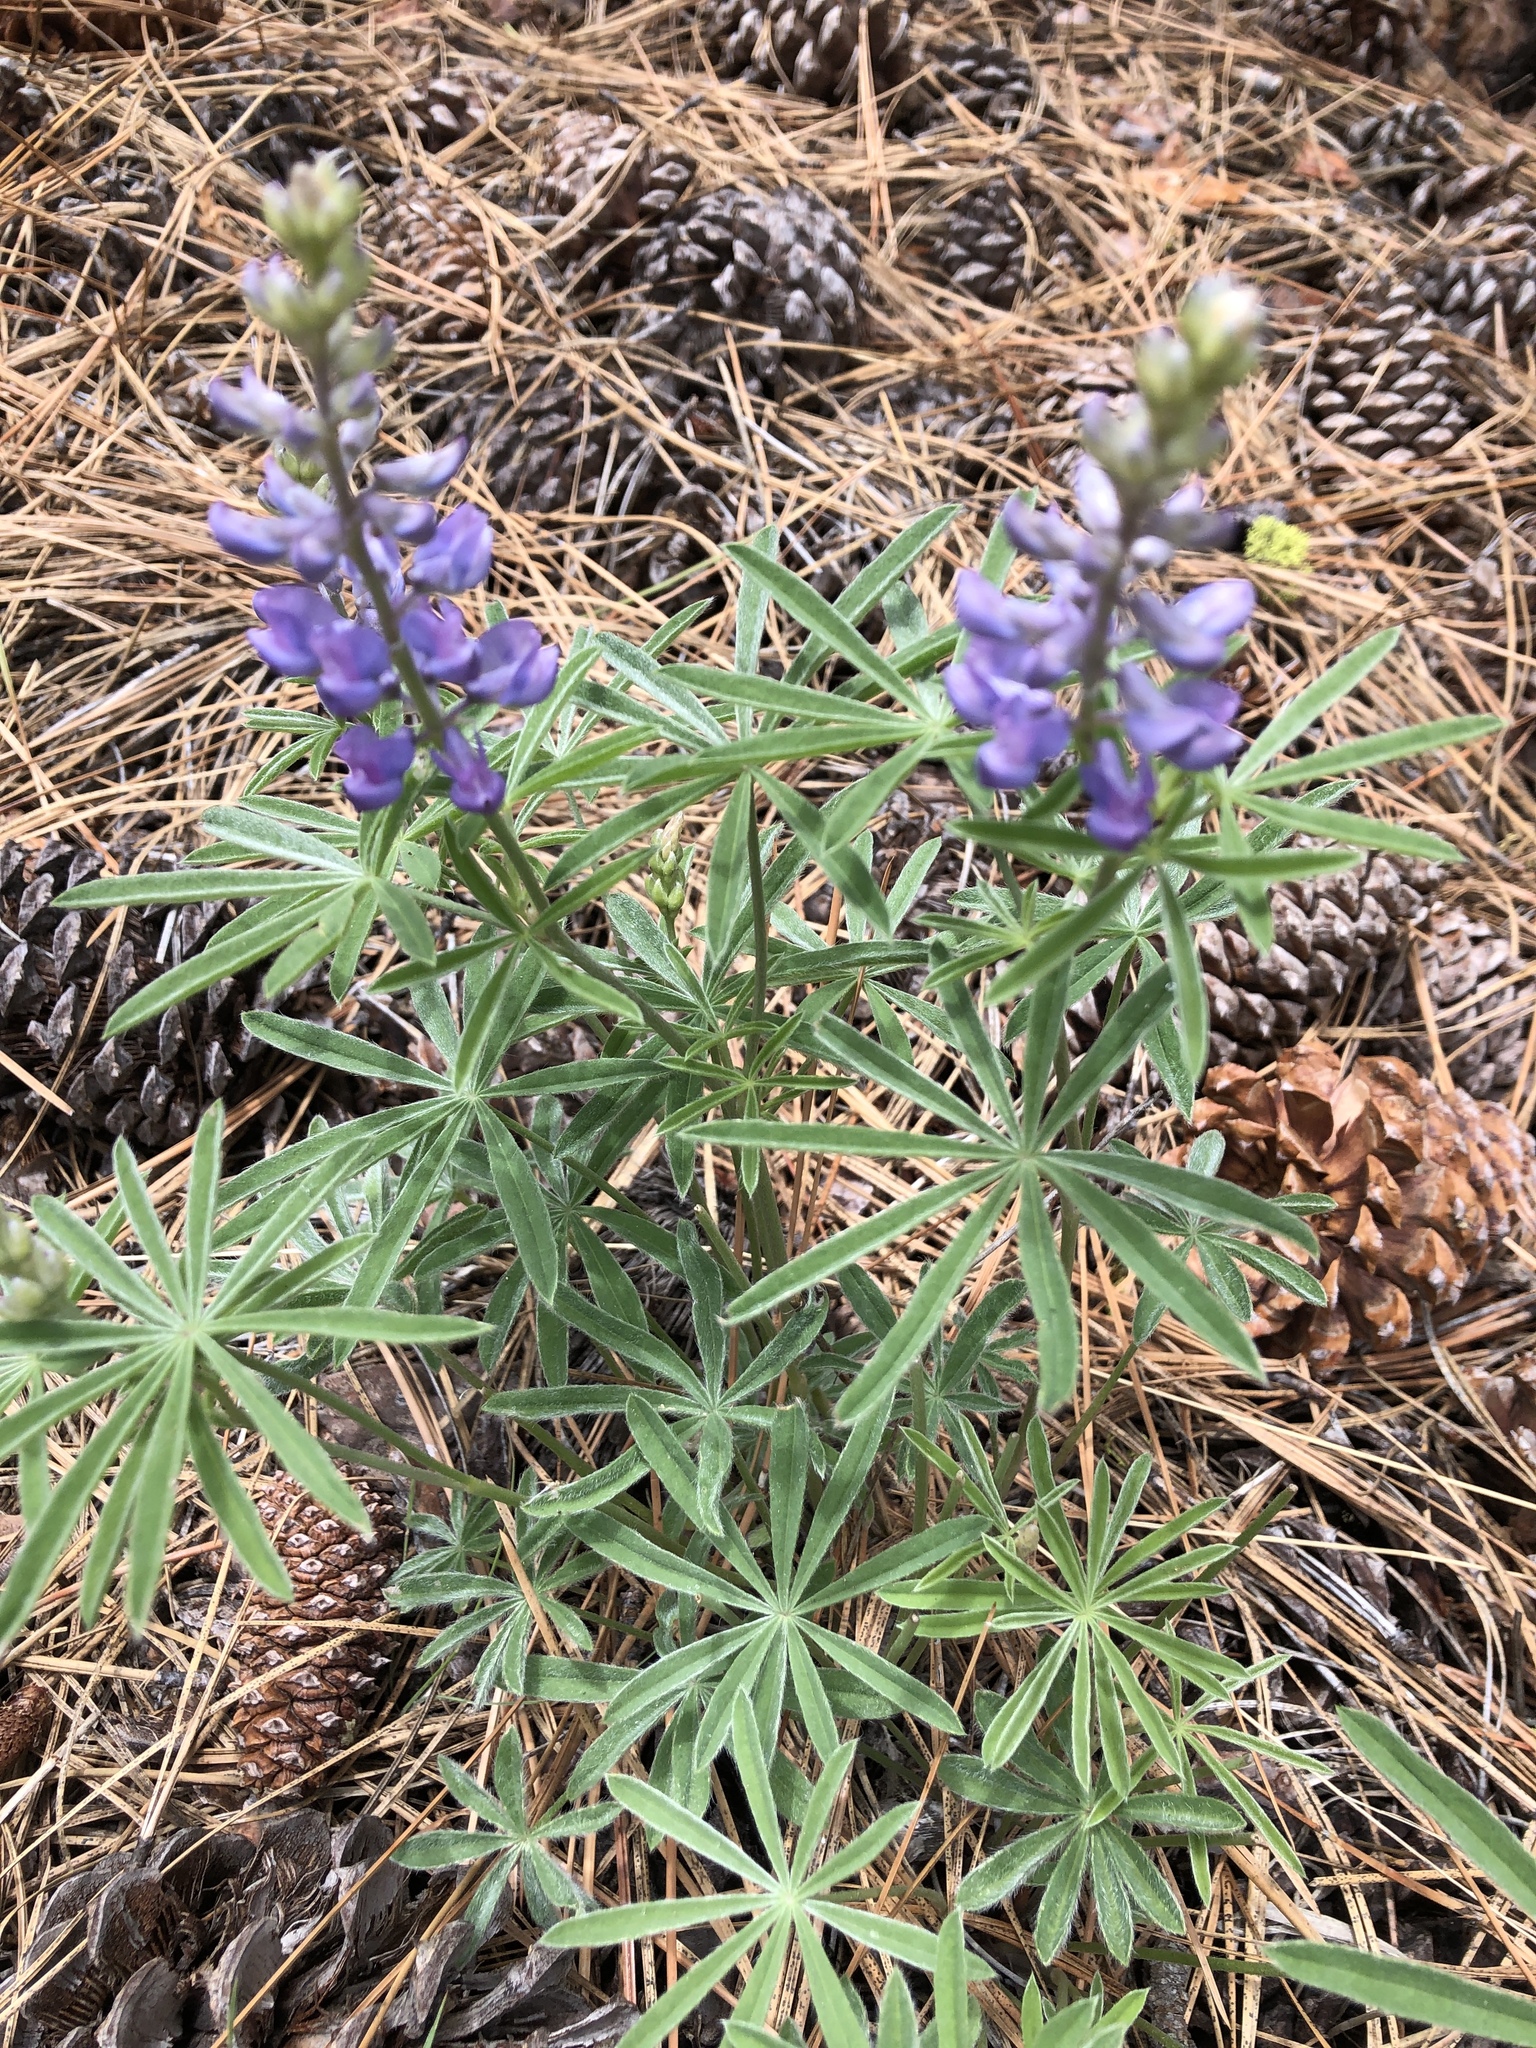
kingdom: Plantae
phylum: Tracheophyta
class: Magnoliopsida
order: Fabales
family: Fabaceae
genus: Lupinus
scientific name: Lupinus arbustus
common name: Montana lupine
